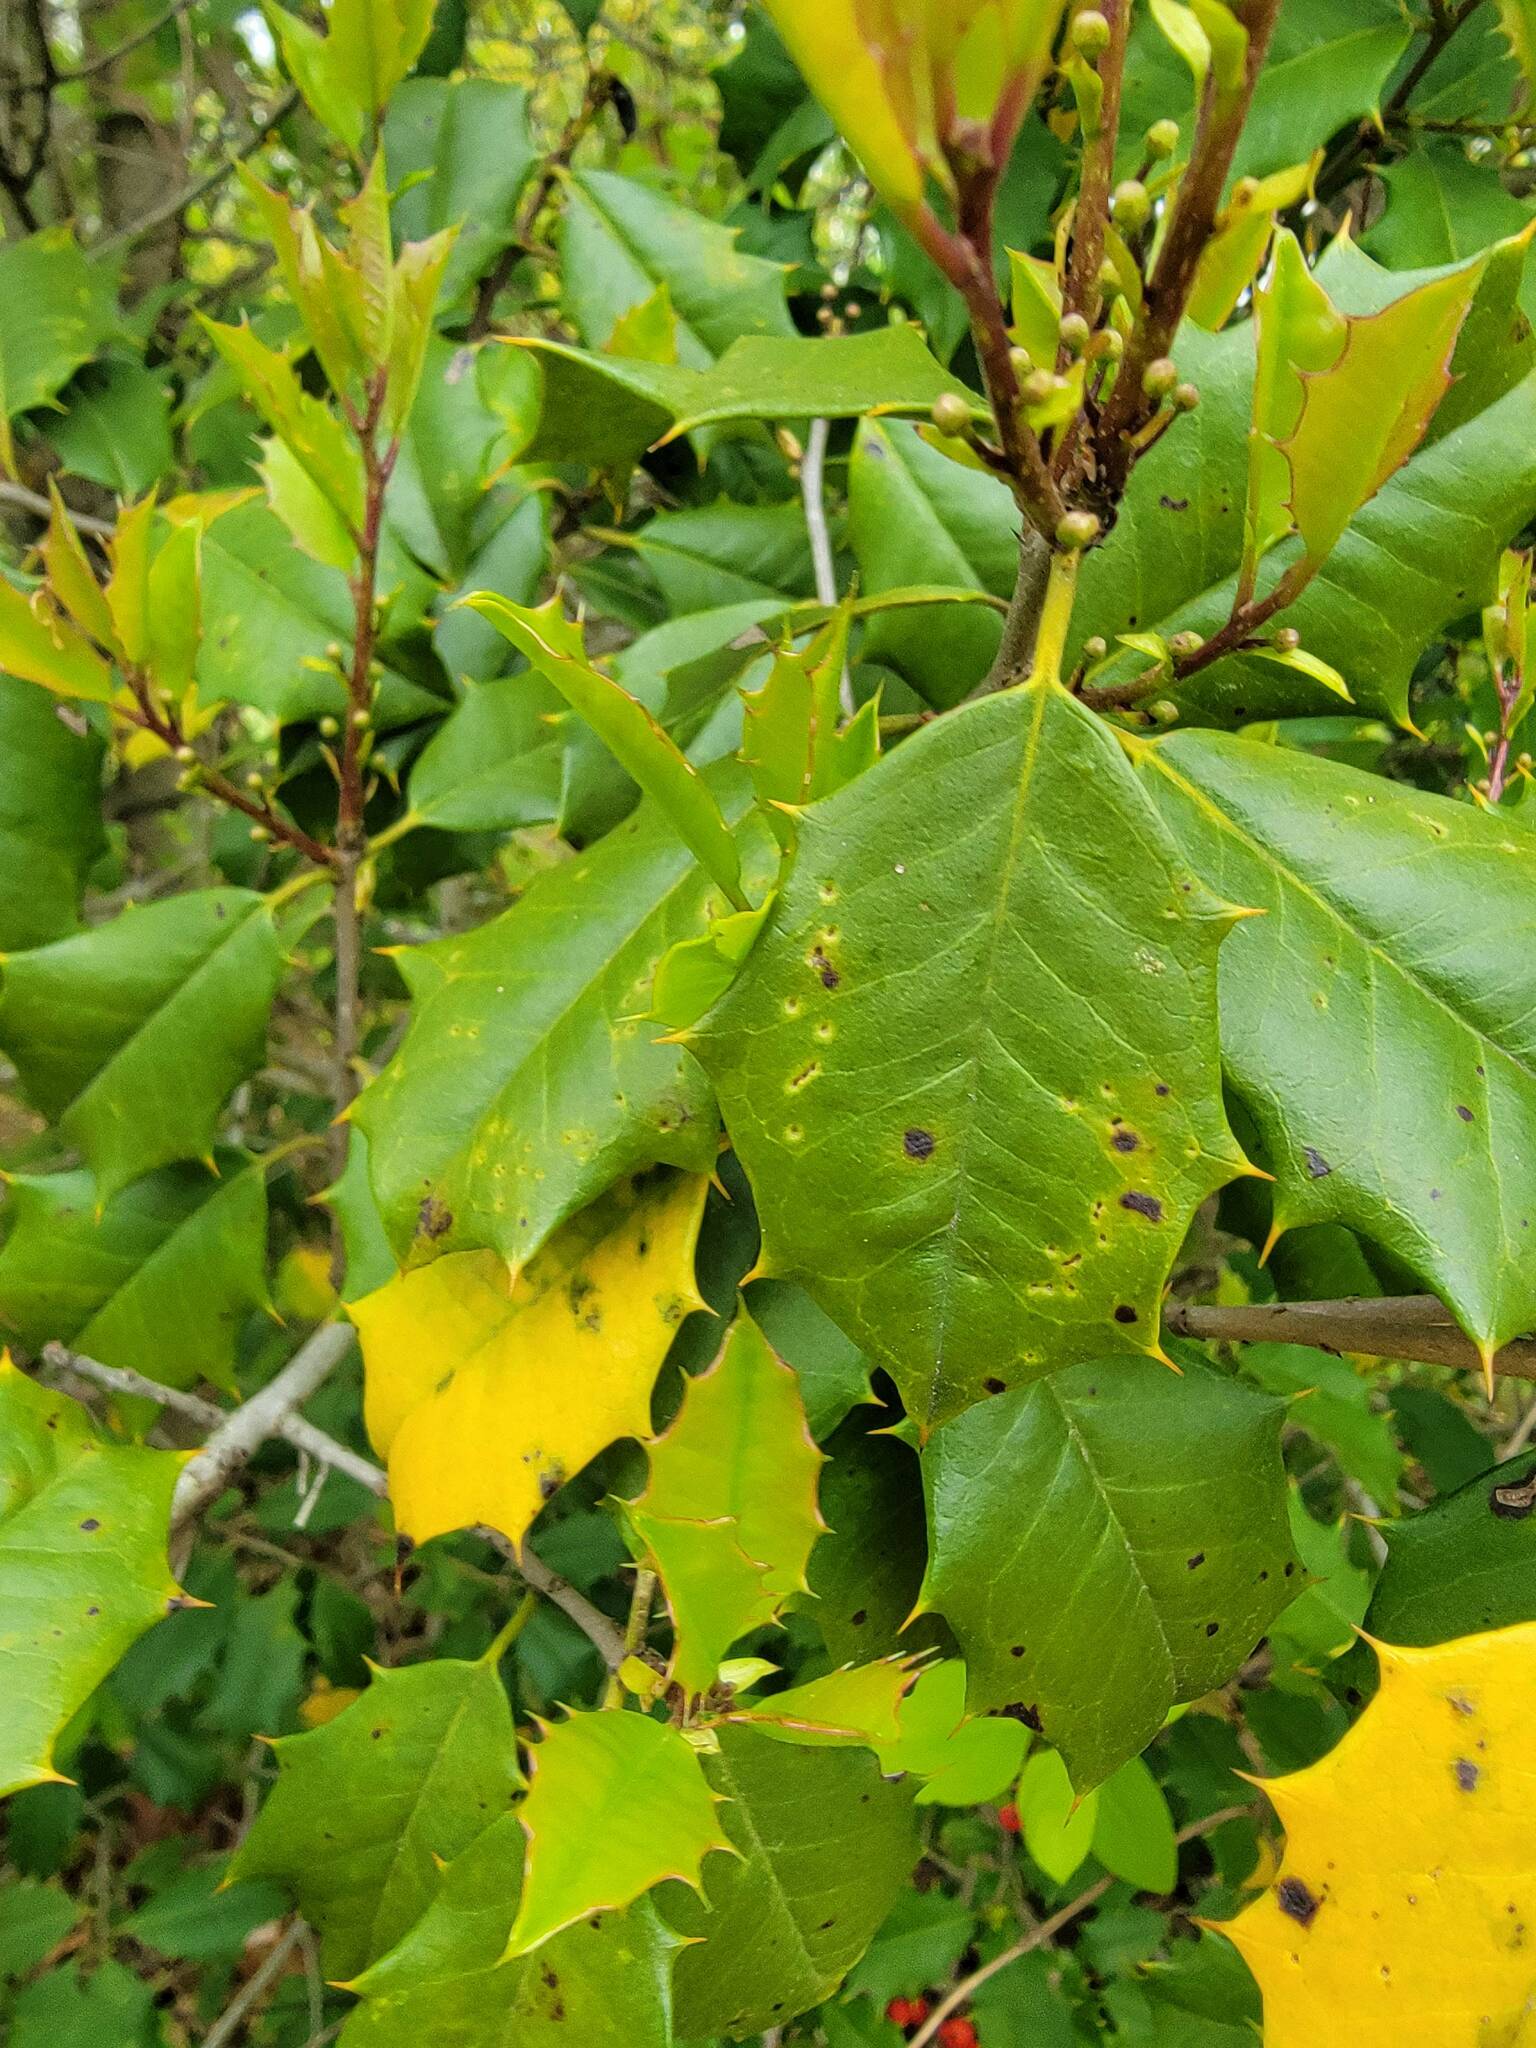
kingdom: Plantae
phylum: Tracheophyta
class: Magnoliopsida
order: Aquifoliales
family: Aquifoliaceae
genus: Ilex
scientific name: Ilex opaca
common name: American holly
